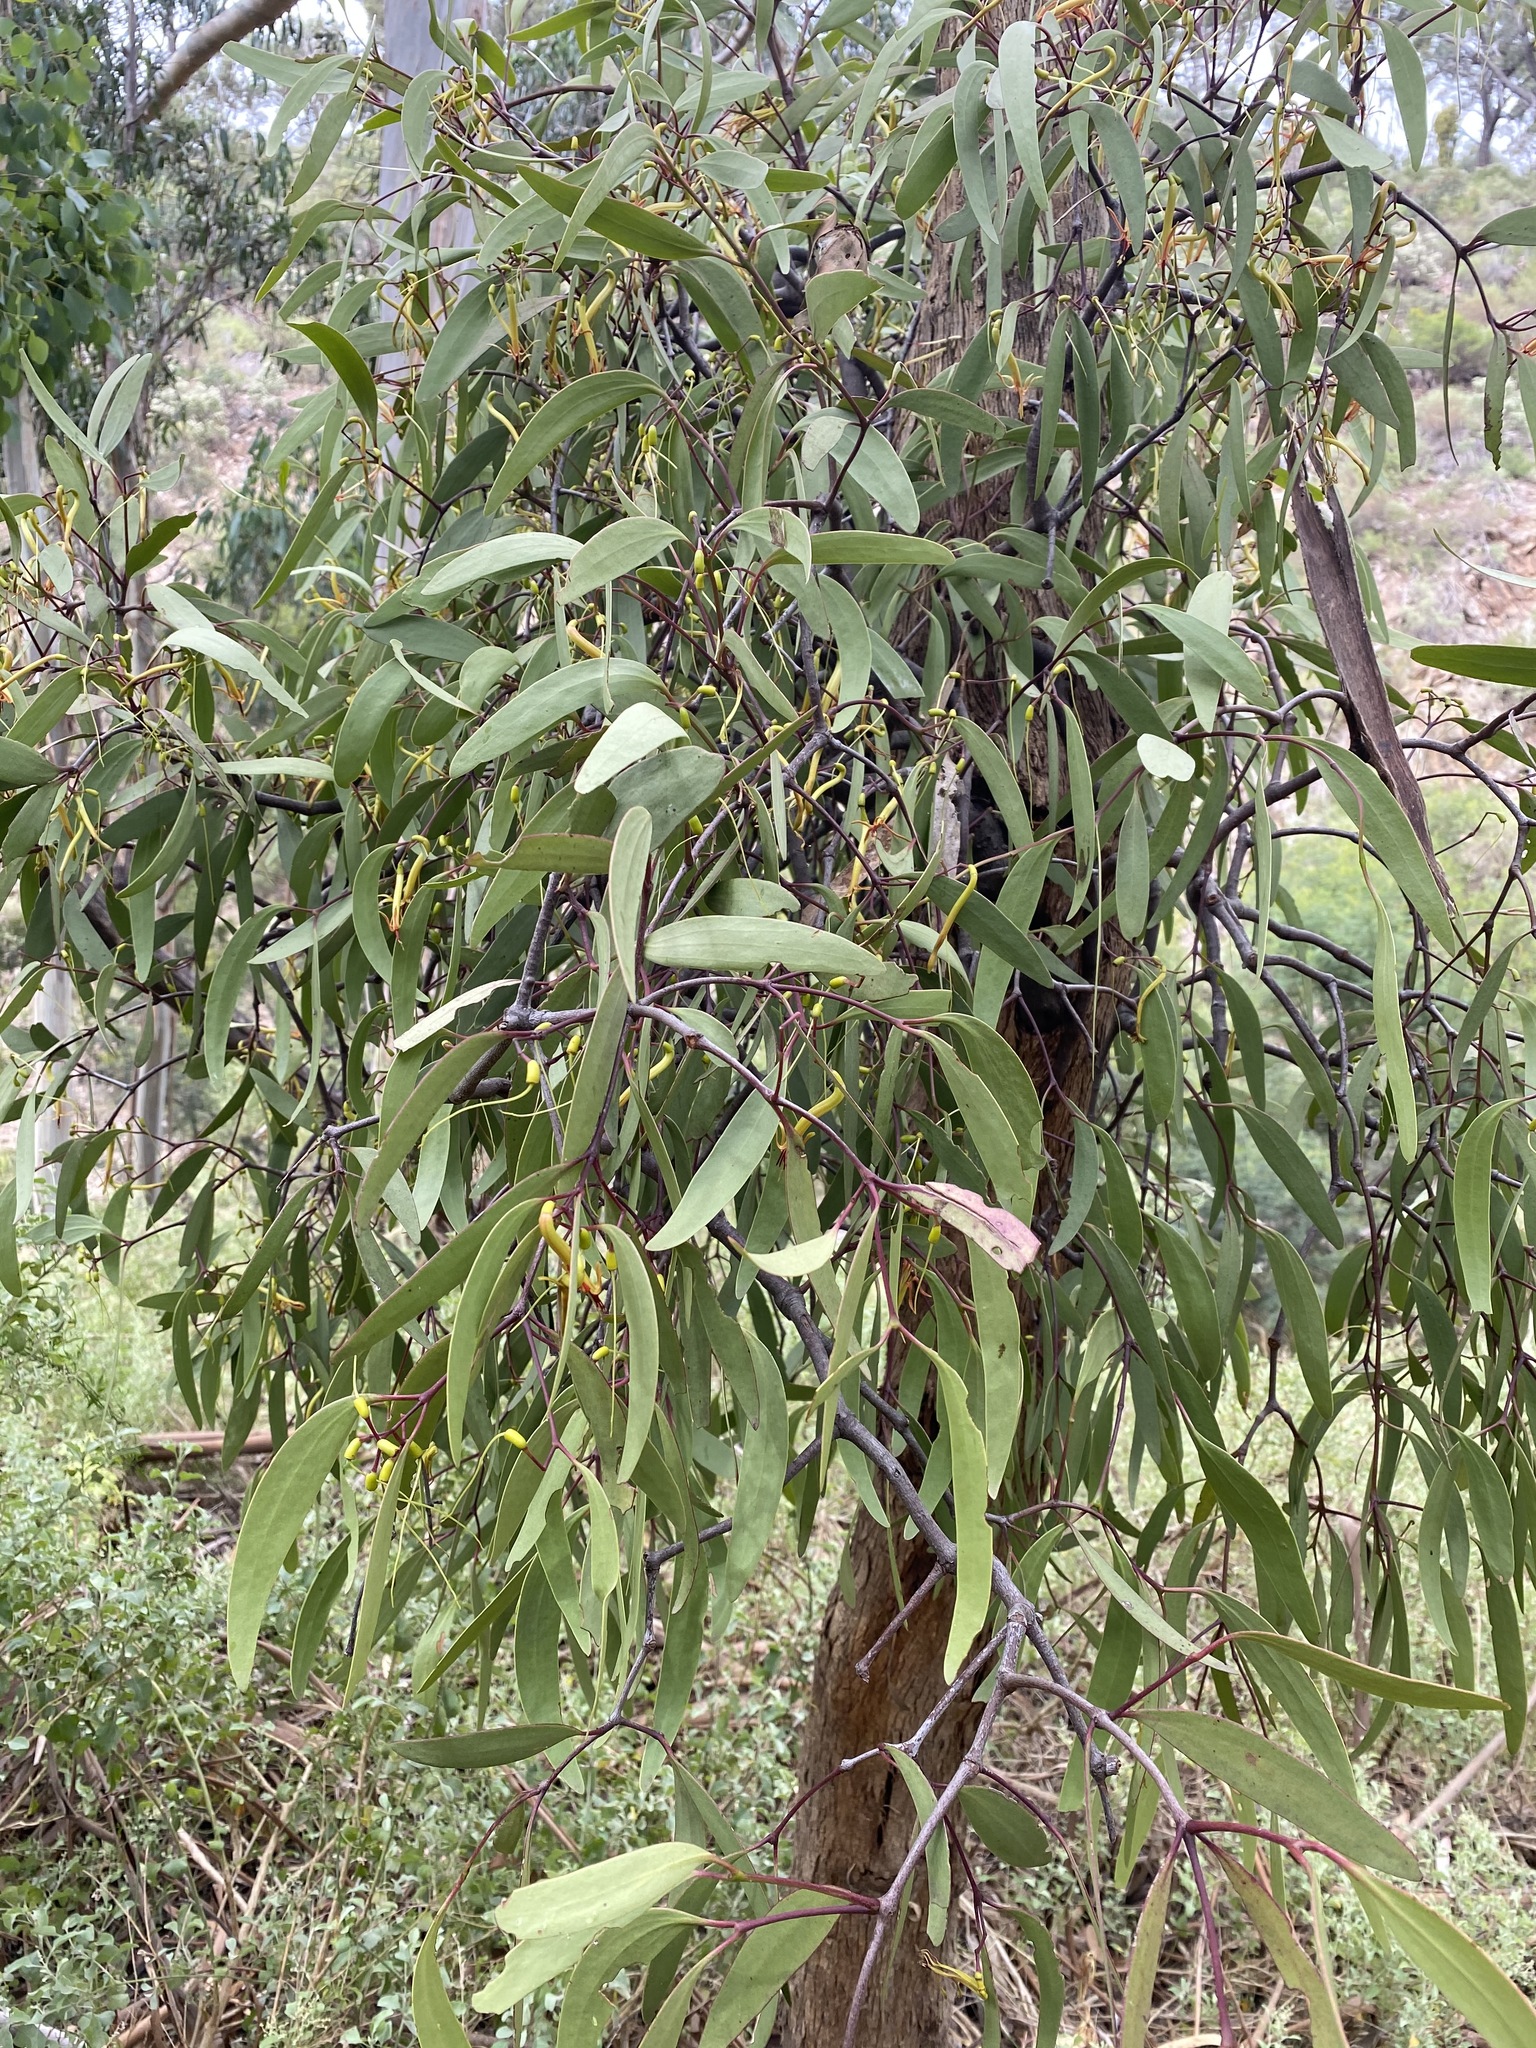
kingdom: Plantae
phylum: Tracheophyta
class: Magnoliopsida
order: Santalales
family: Loranthaceae
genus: Muellerina
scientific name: Muellerina eucalyptoides
